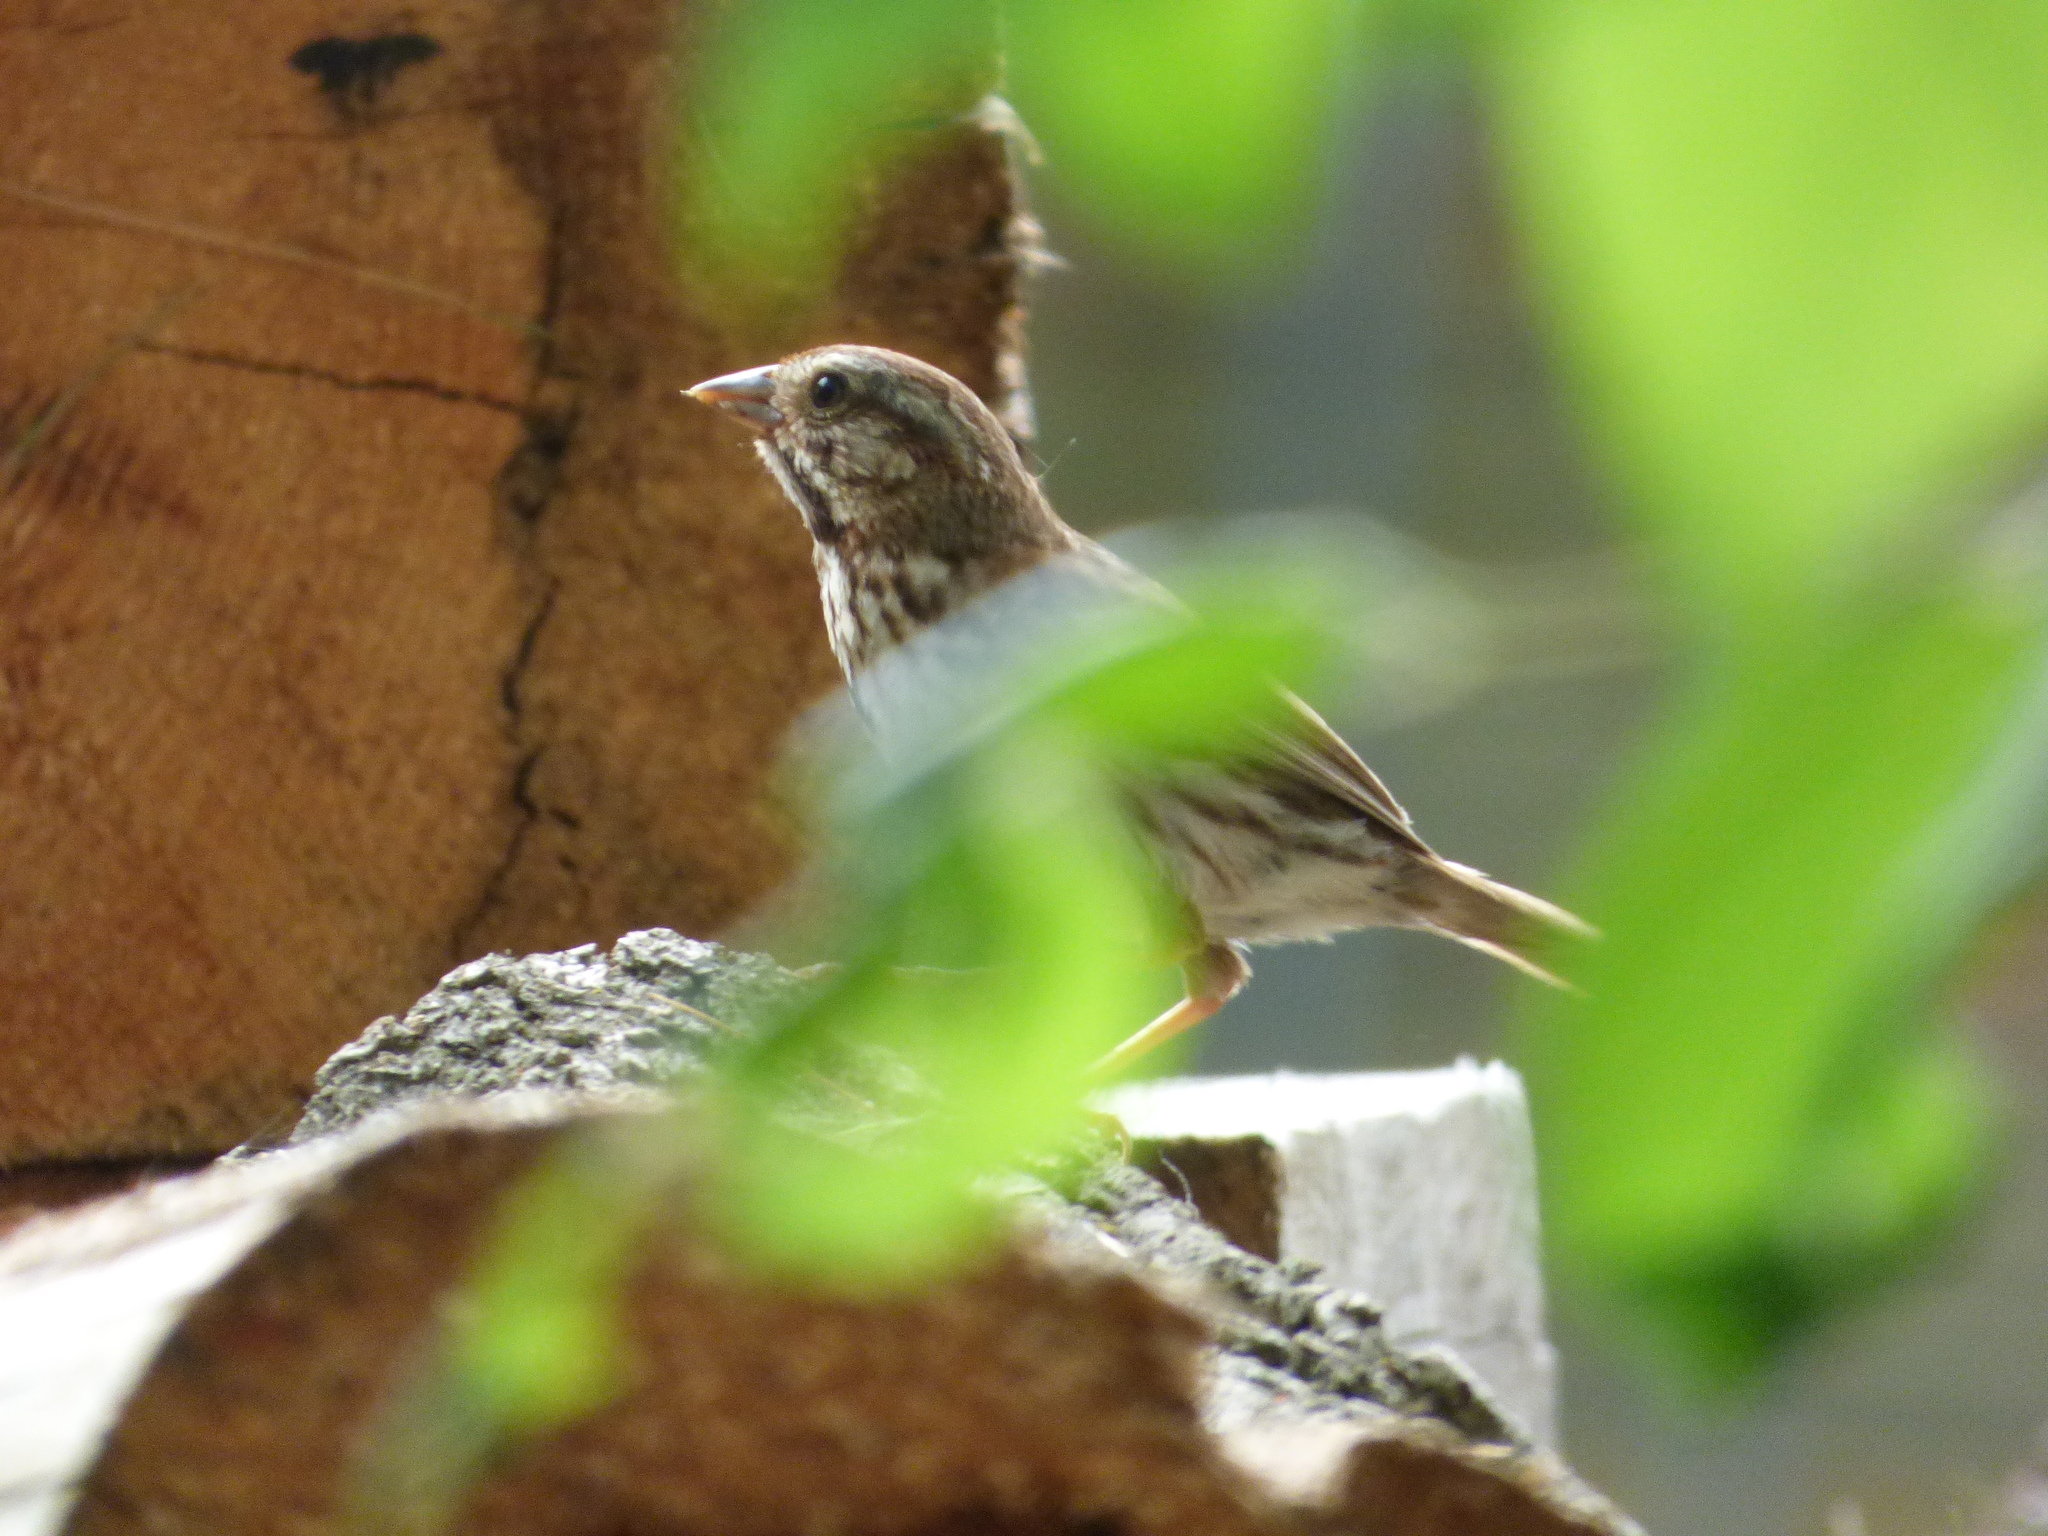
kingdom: Animalia
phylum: Chordata
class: Aves
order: Passeriformes
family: Passerellidae
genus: Melospiza
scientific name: Melospiza melodia
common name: Song sparrow
